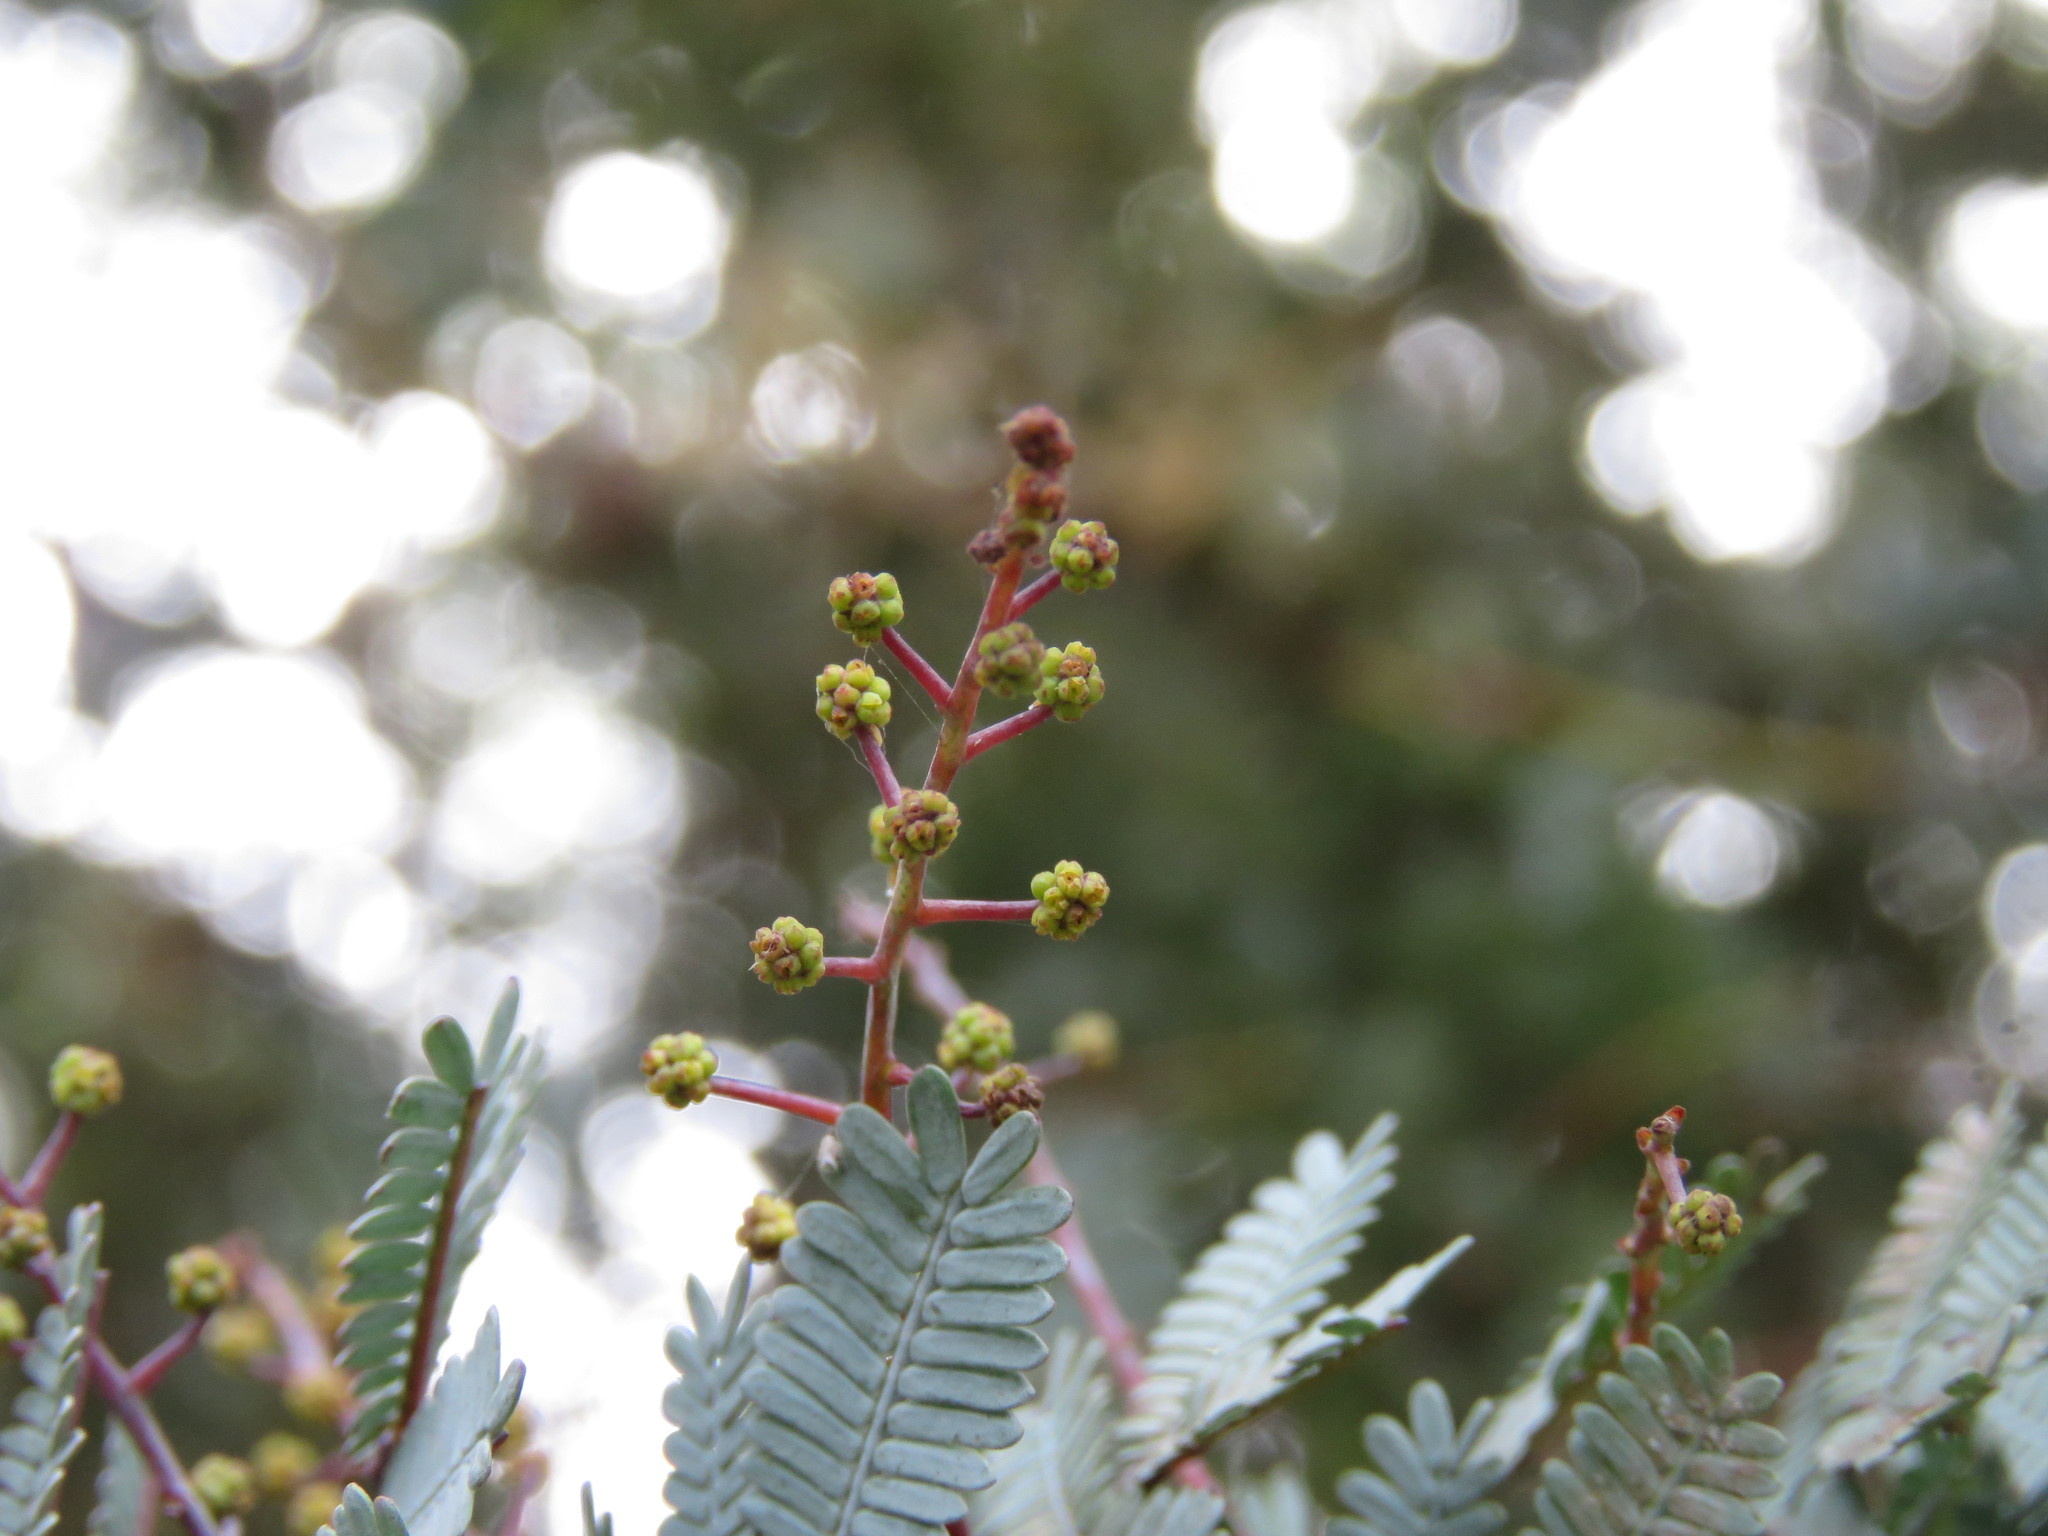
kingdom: Plantae
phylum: Tracheophyta
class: Magnoliopsida
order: Fabales
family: Fabaceae
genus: Acacia
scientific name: Acacia baileyana
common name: Cootamundra wattle
